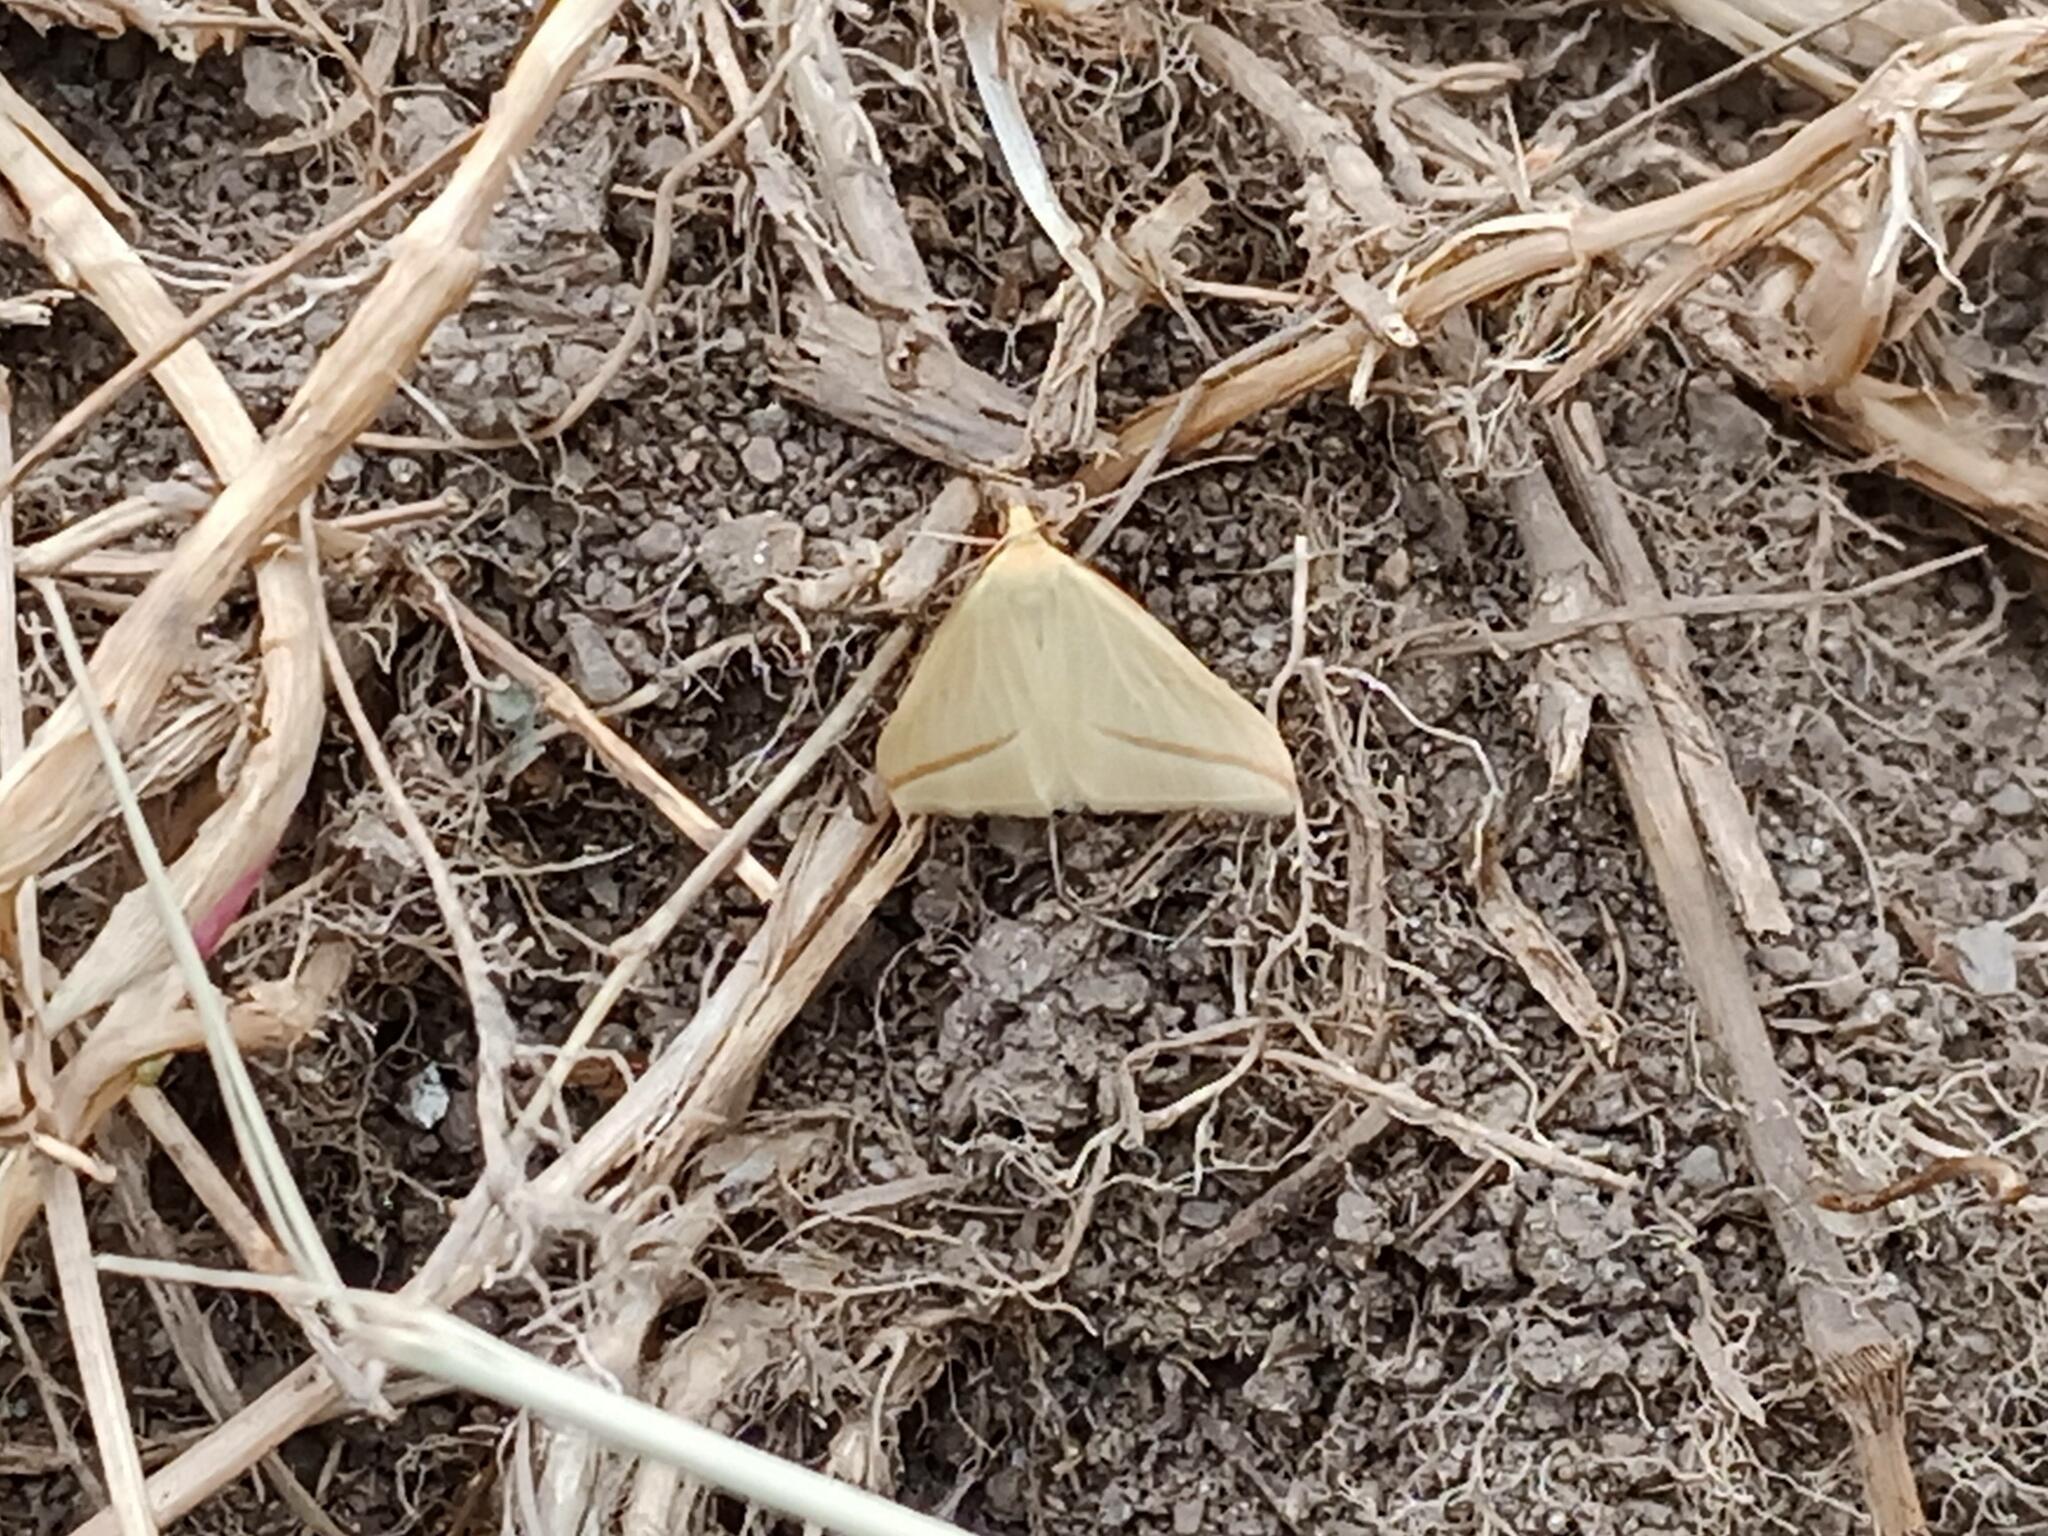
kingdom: Animalia
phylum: Arthropoda
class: Insecta
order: Lepidoptera
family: Geometridae
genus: Rhodometra
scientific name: Rhodometra sacraria
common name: Vestal
